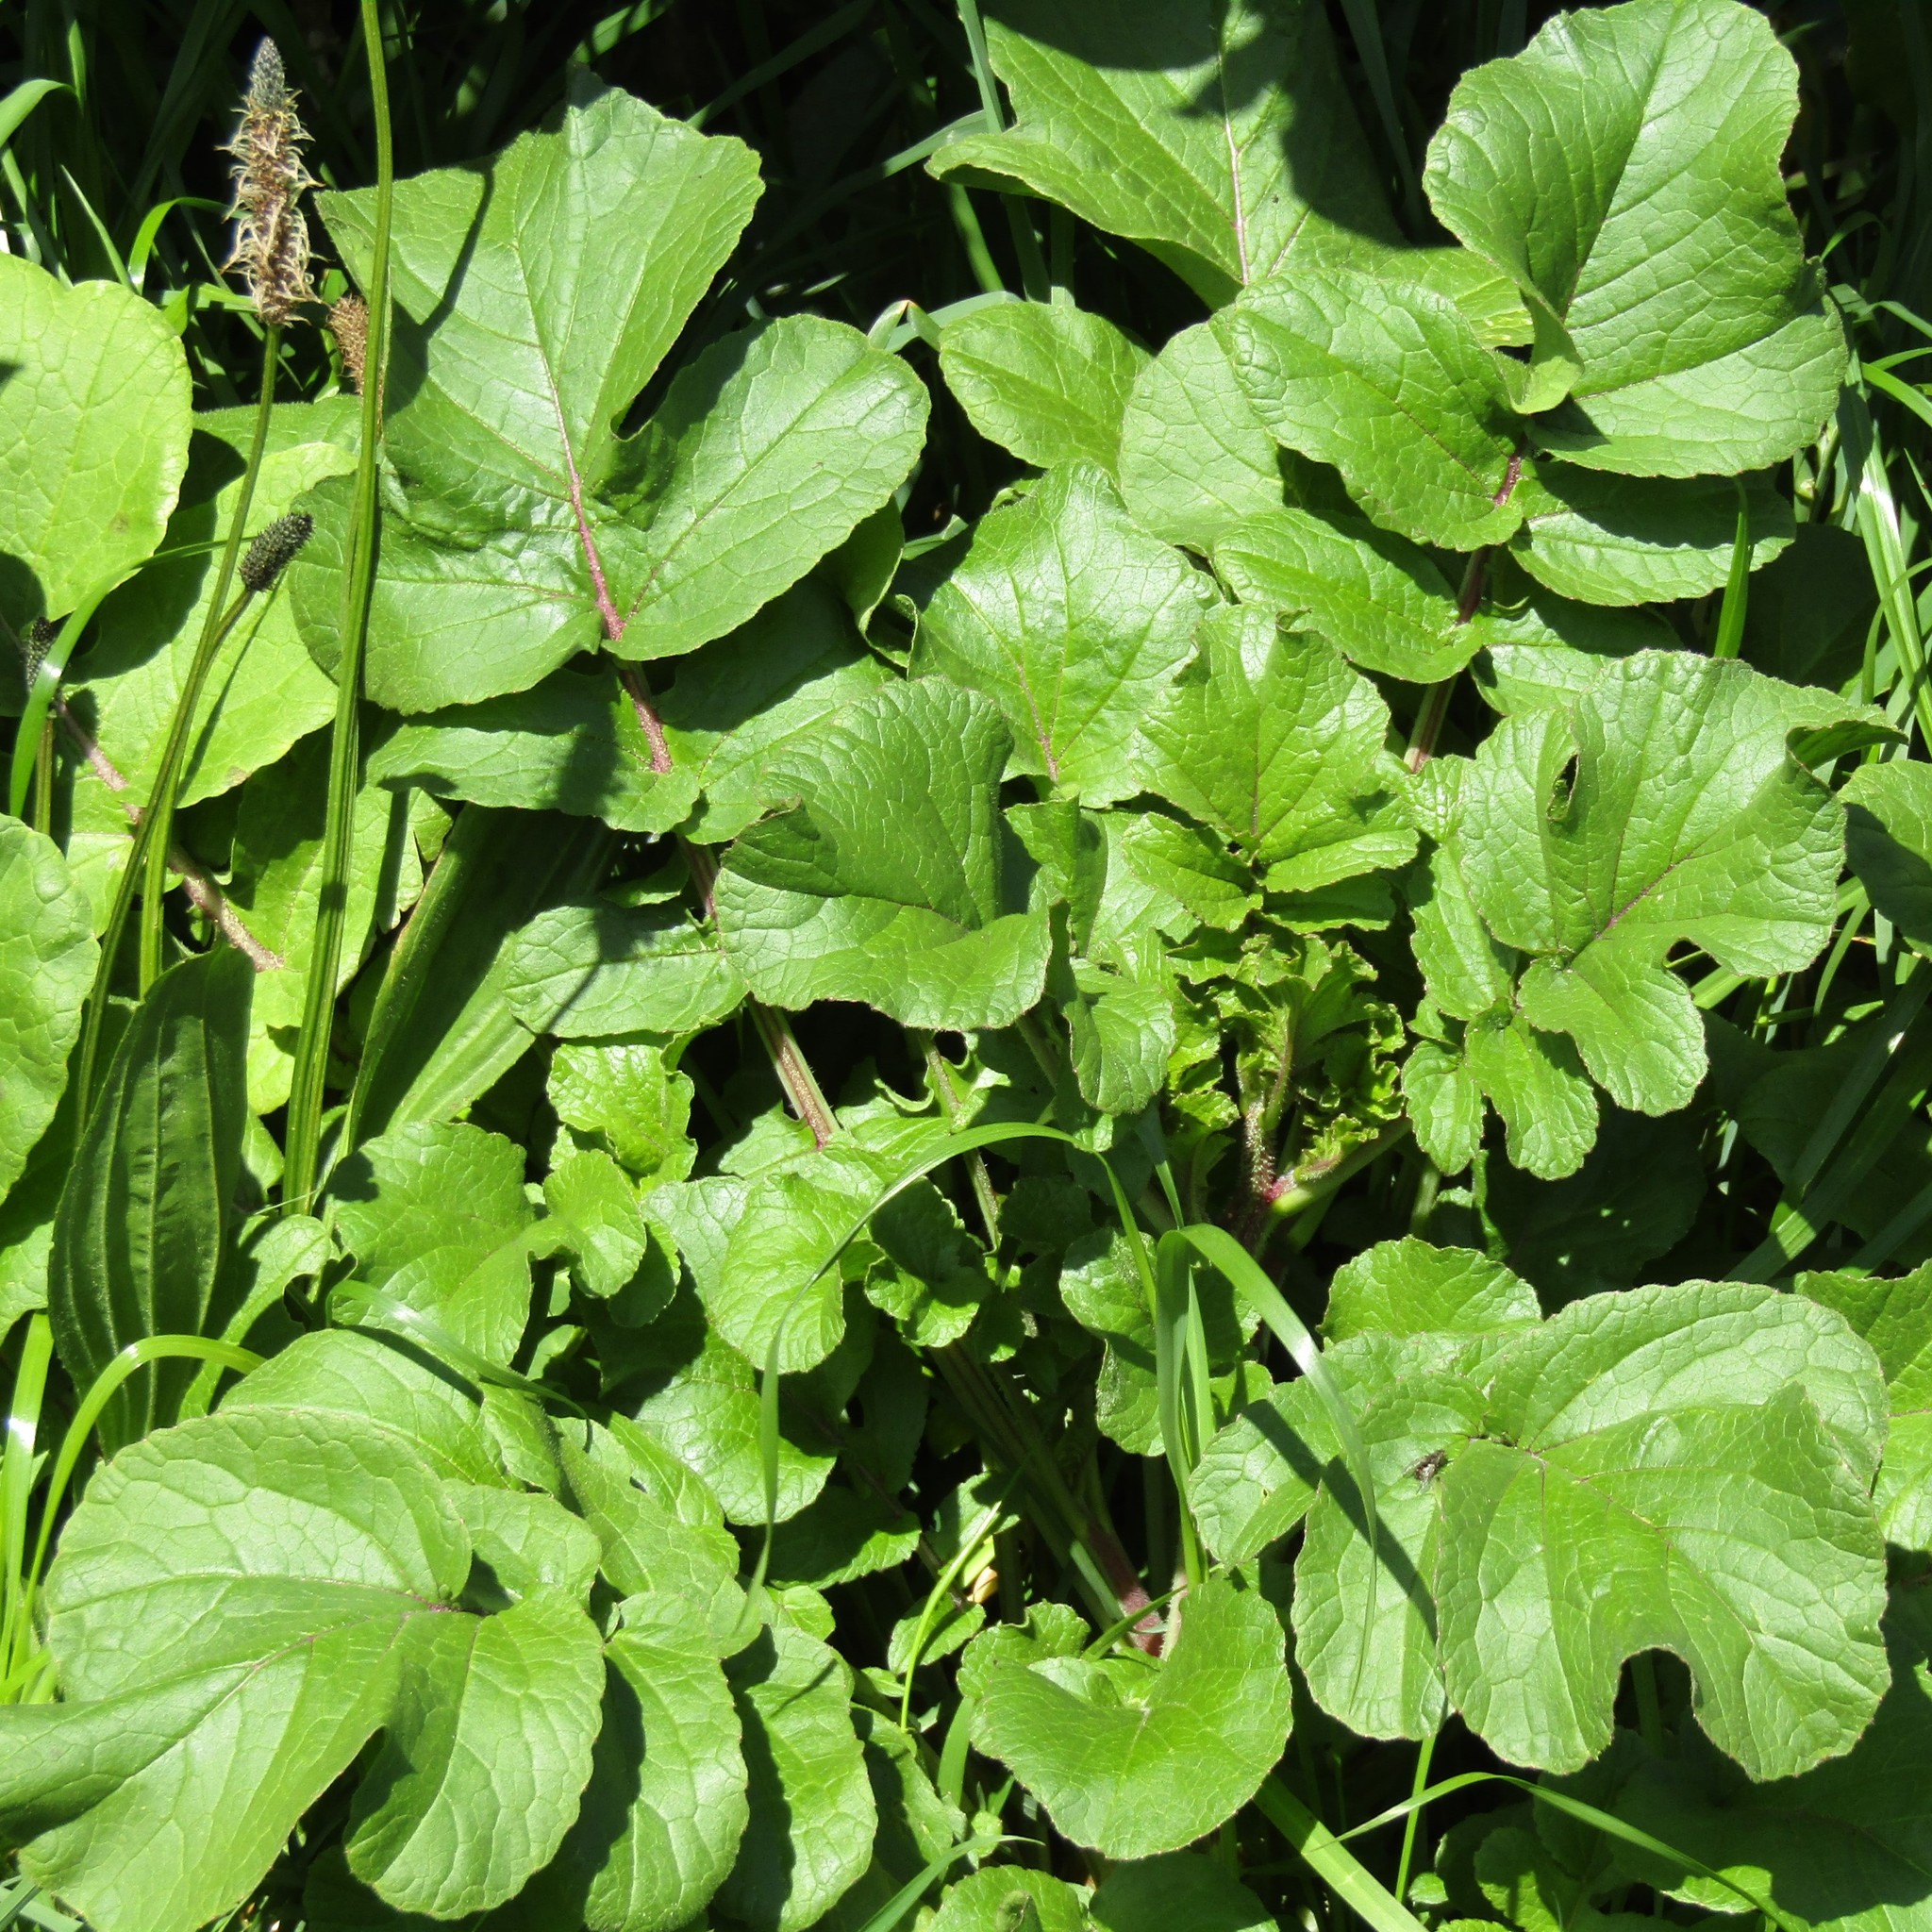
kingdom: Plantae
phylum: Tracheophyta
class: Magnoliopsida
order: Brassicales
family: Brassicaceae
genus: Raphanus
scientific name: Raphanus raphanistrum
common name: Wild radish
